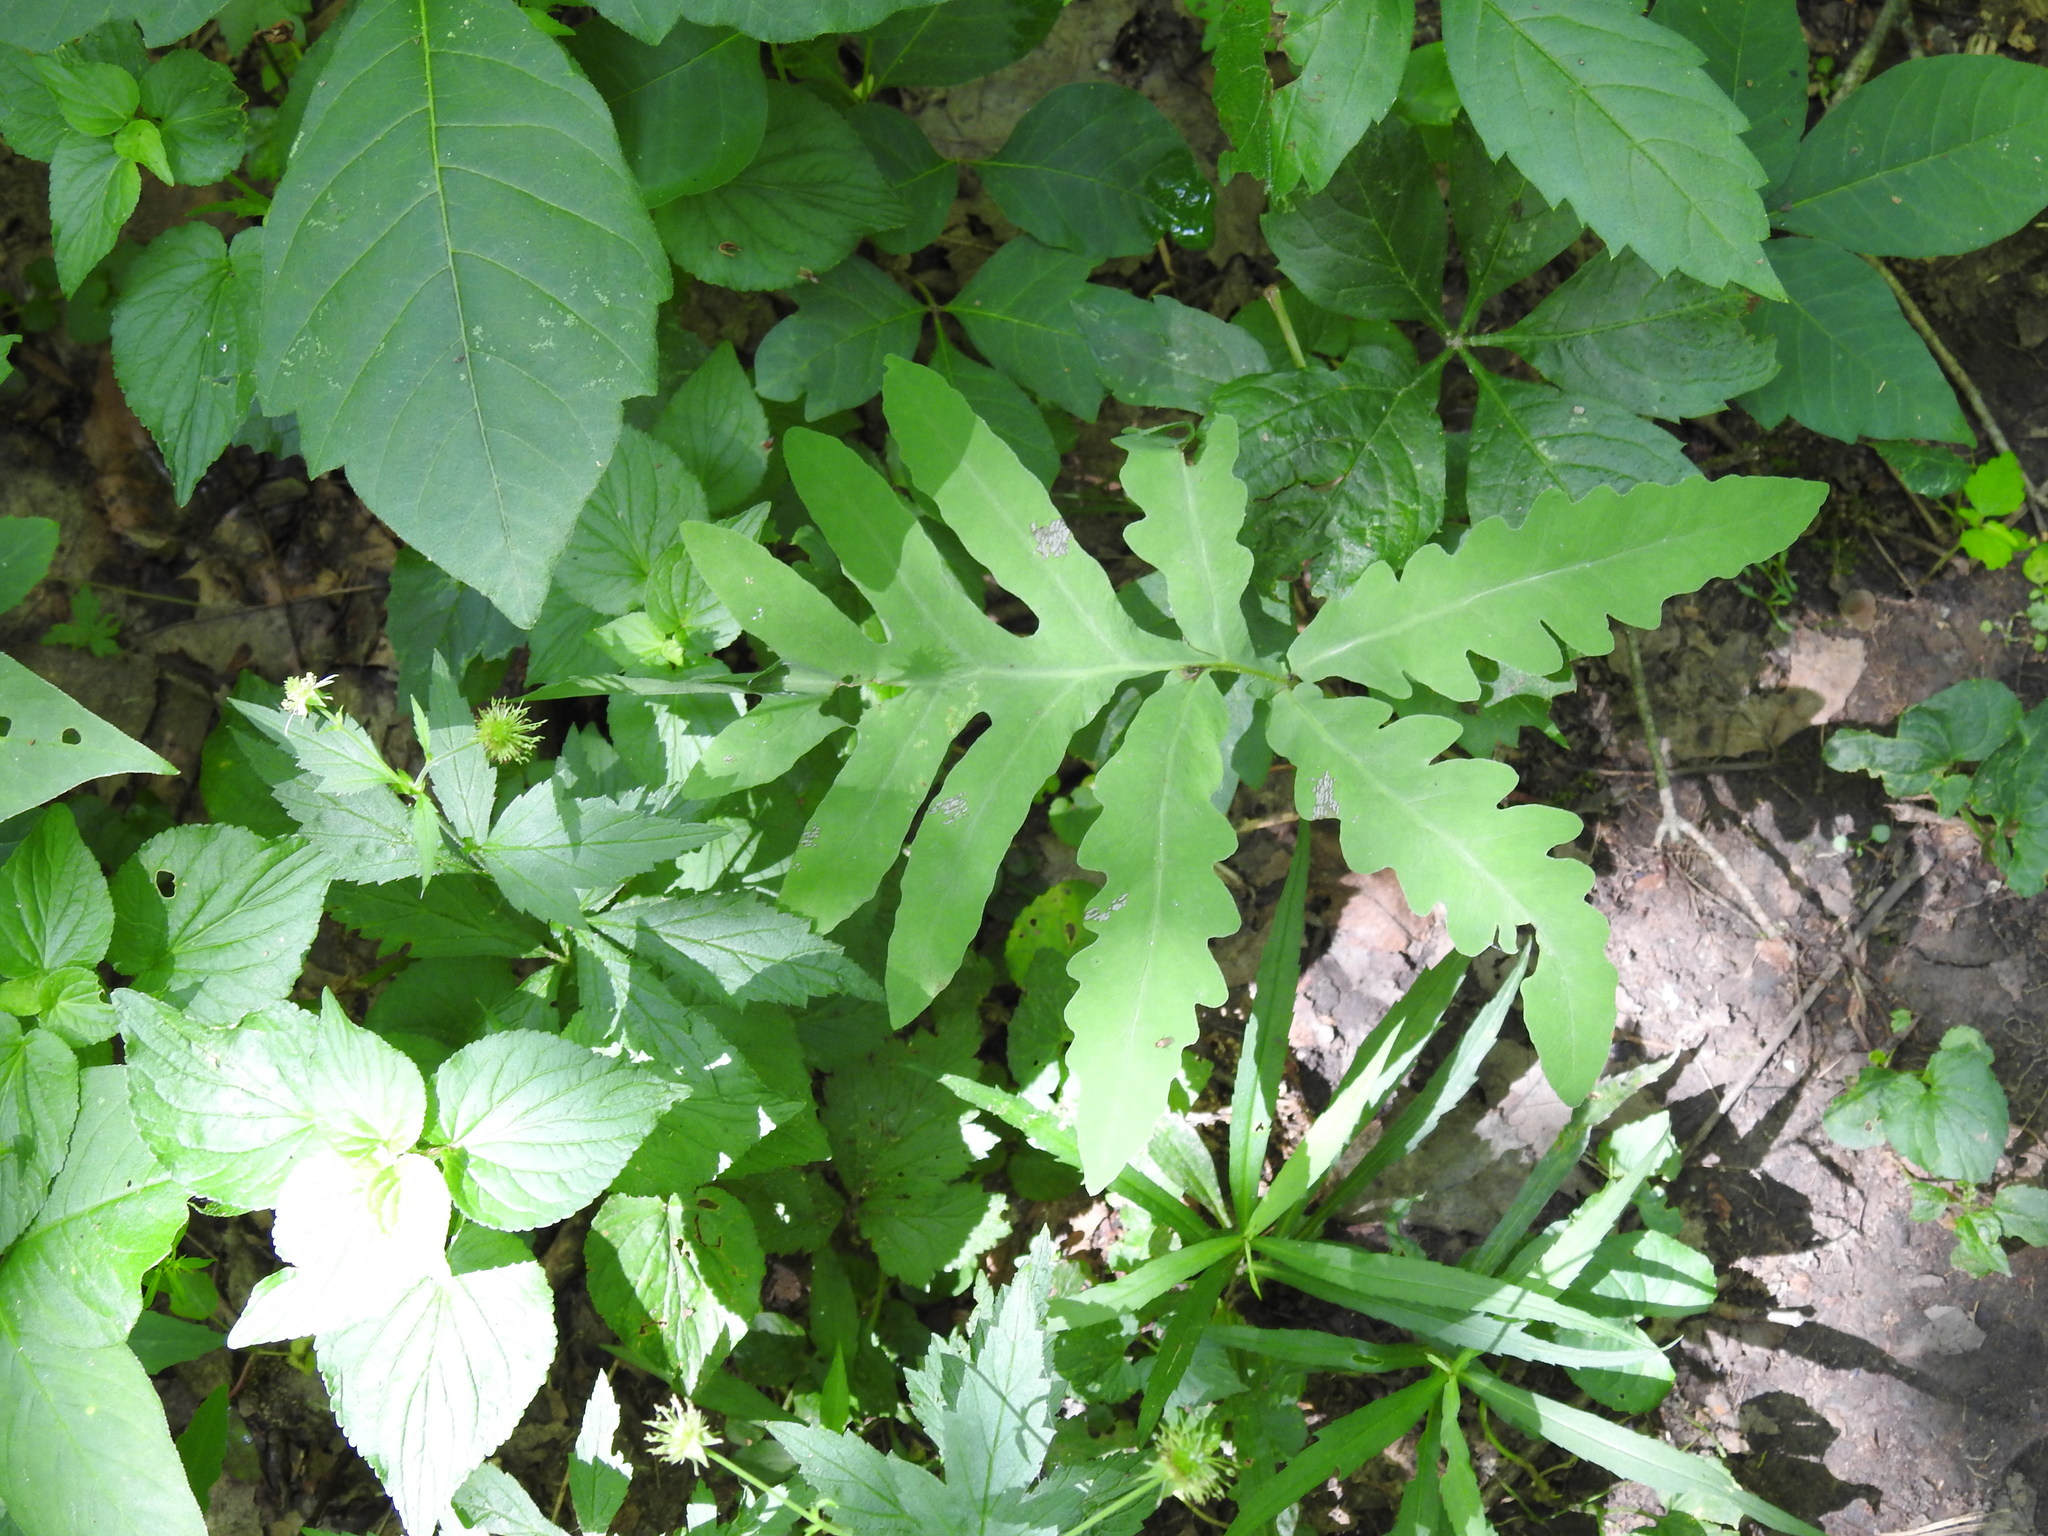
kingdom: Plantae
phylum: Tracheophyta
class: Polypodiopsida
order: Polypodiales
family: Onocleaceae
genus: Onoclea
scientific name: Onoclea sensibilis
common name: Sensitive fern
